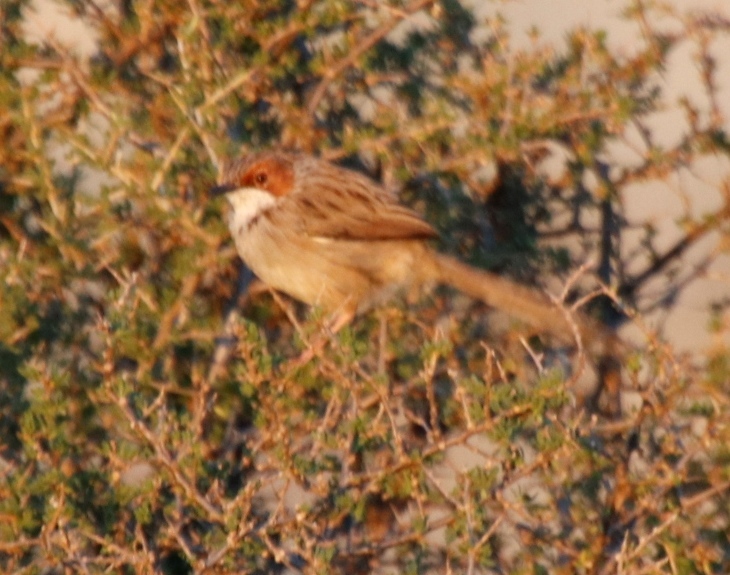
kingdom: Animalia
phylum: Chordata
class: Aves
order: Passeriformes
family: Cisticolidae
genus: Malcorus
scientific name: Malcorus pectoralis
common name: Rufous-eared warbler
